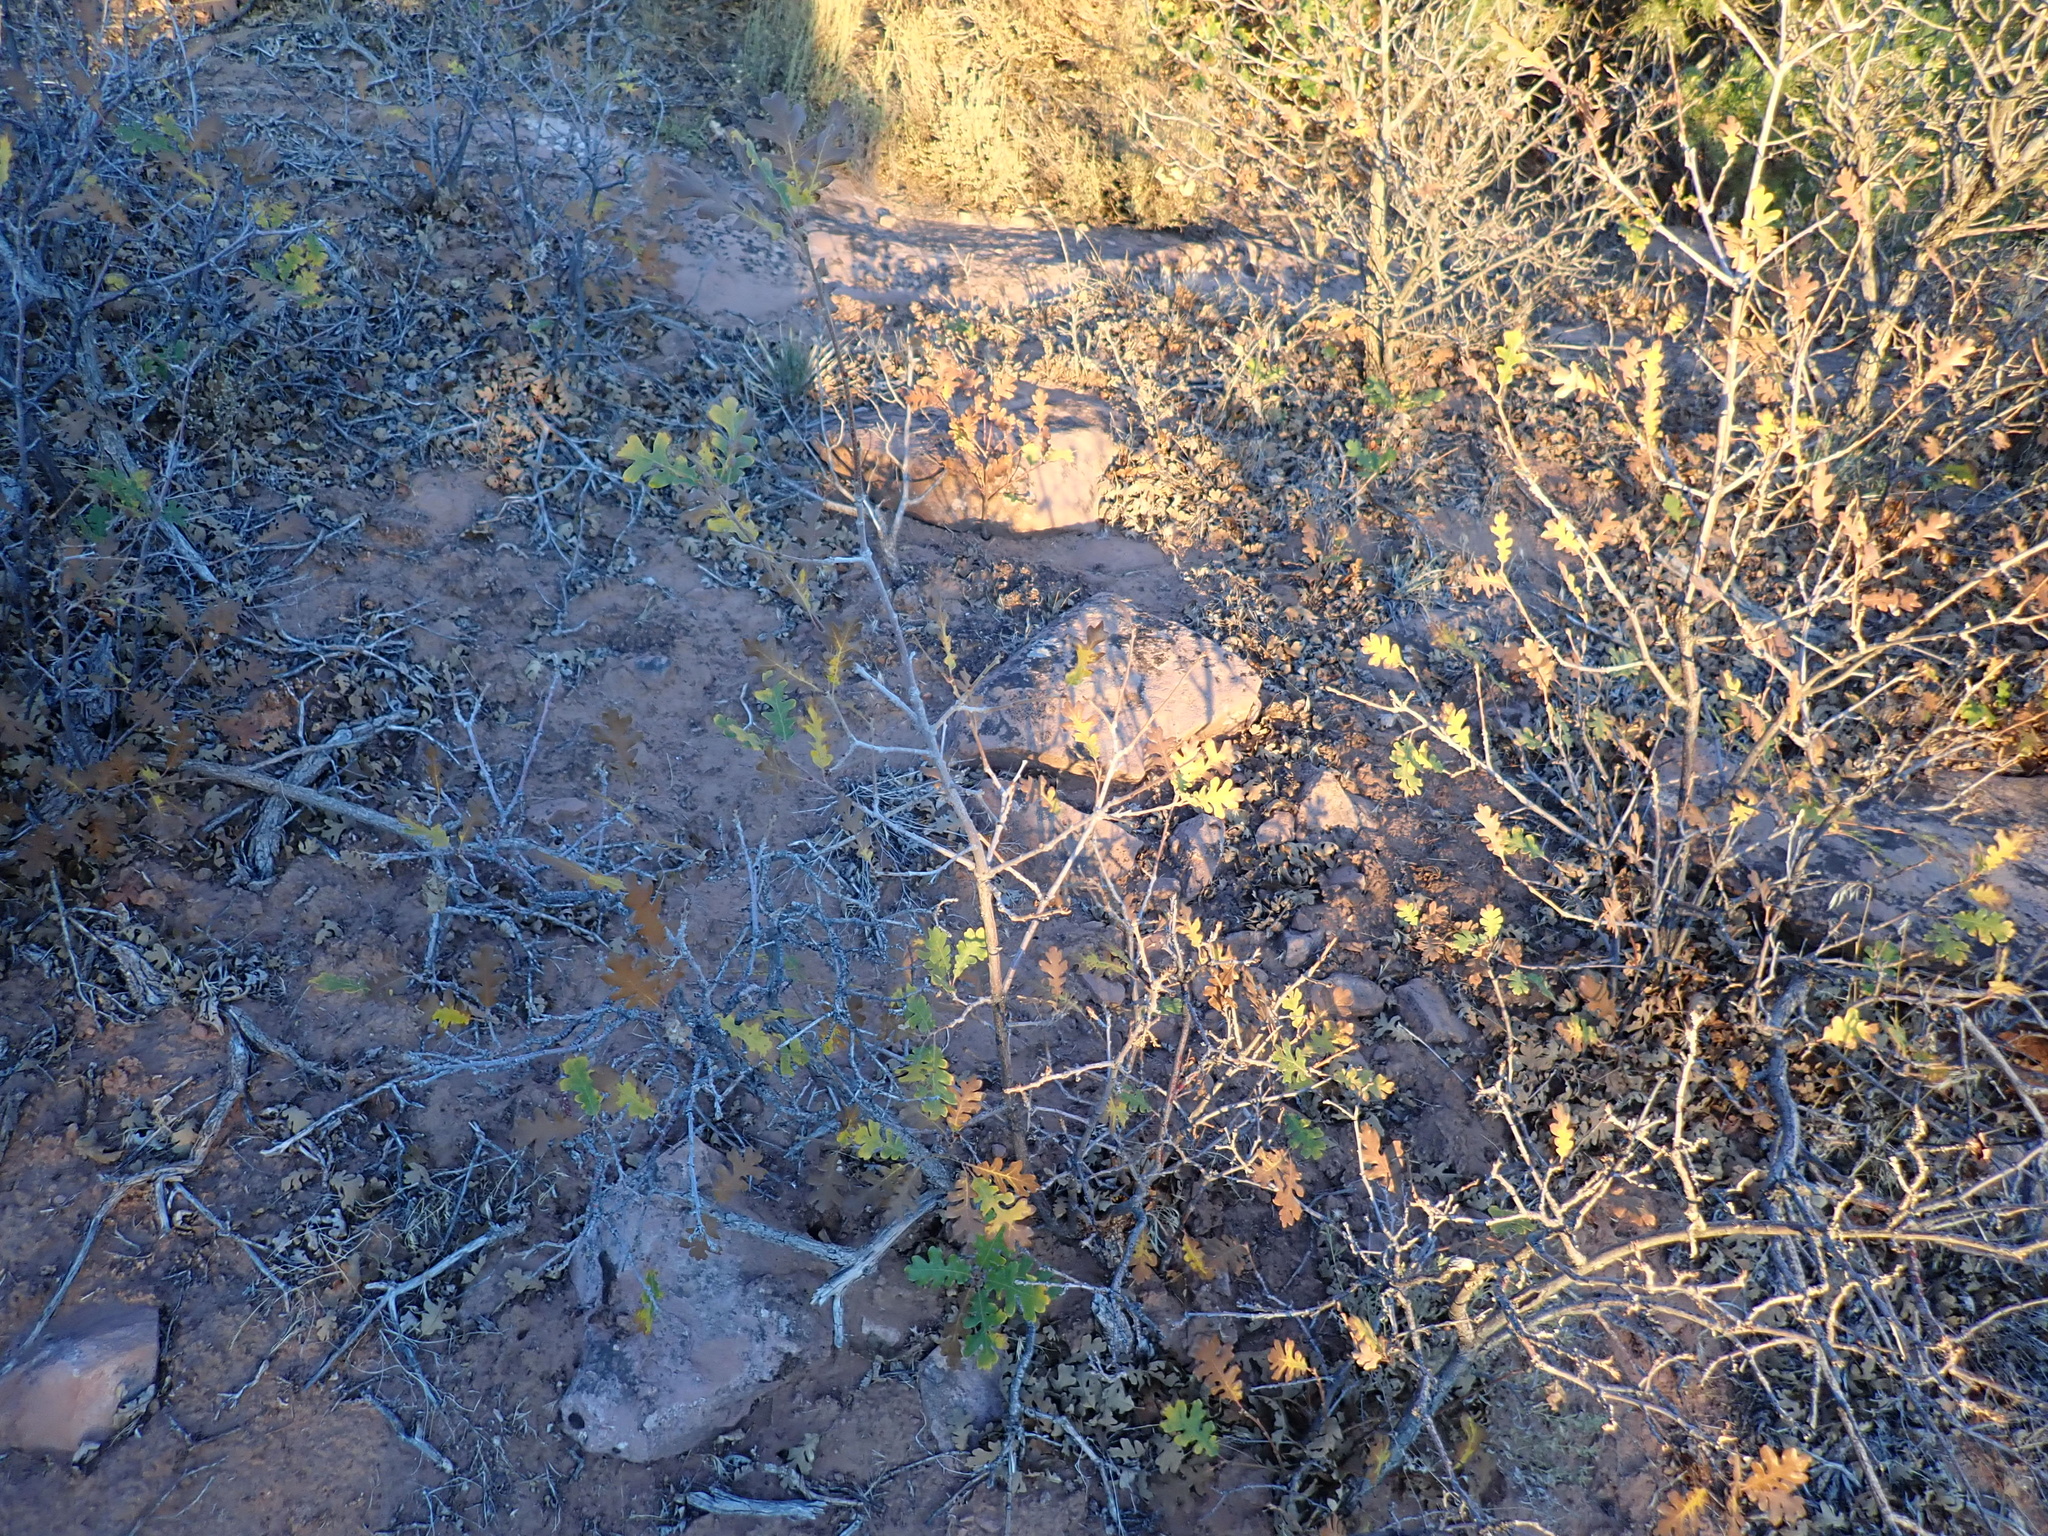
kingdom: Plantae
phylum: Tracheophyta
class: Magnoliopsida
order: Fagales
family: Fagaceae
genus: Quercus
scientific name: Quercus gambelii
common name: Gambel oak
